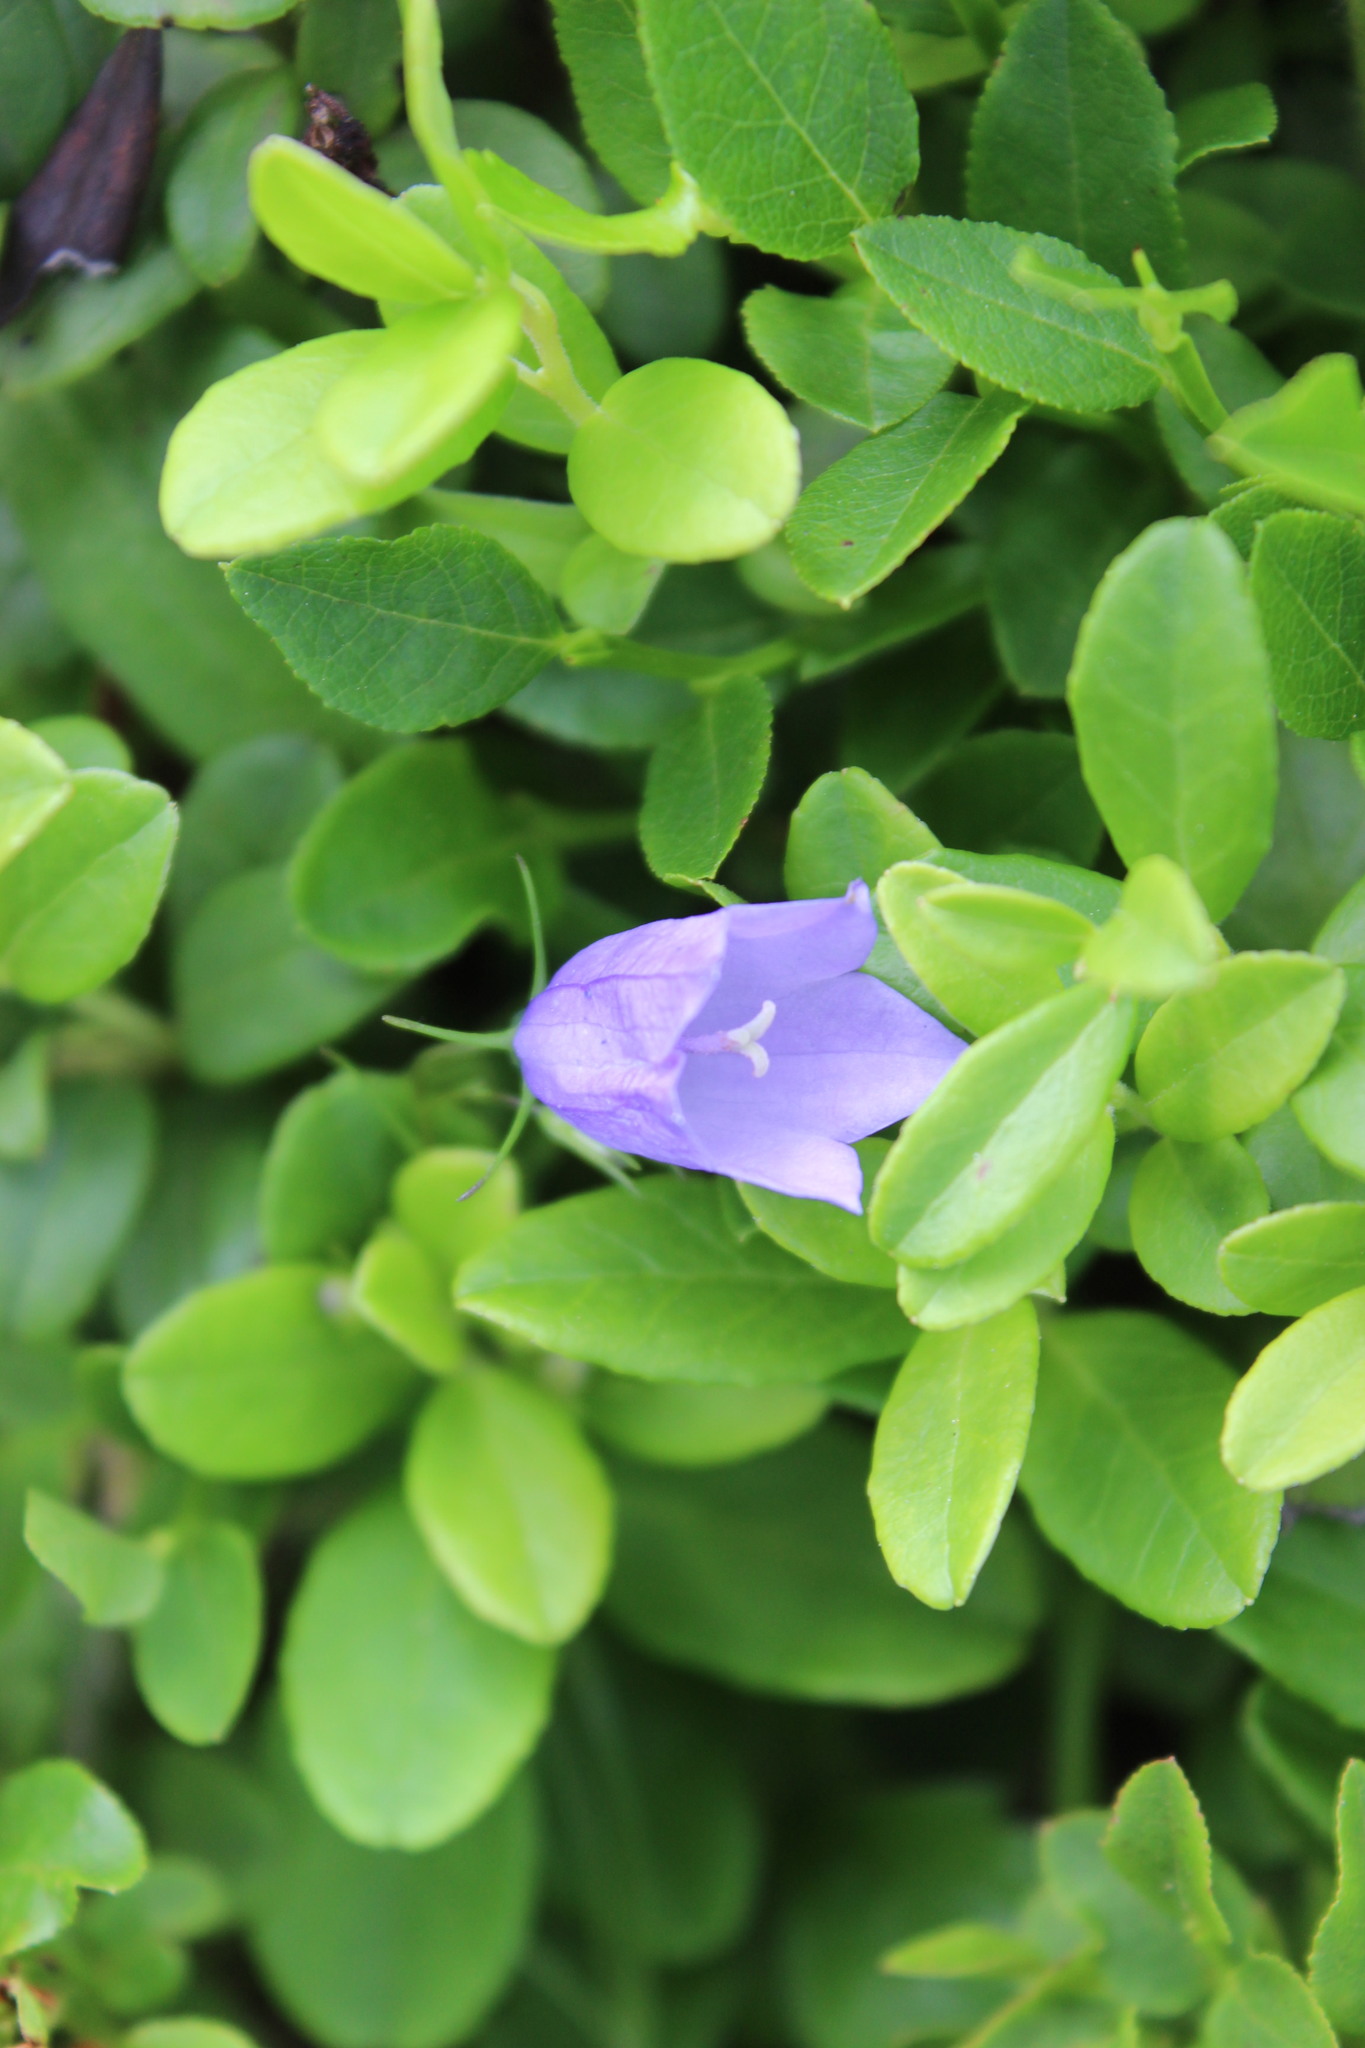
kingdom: Plantae
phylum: Tracheophyta
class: Magnoliopsida
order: Asterales
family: Campanulaceae
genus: Campanula
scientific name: Campanula rotundifolia
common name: Harebell
